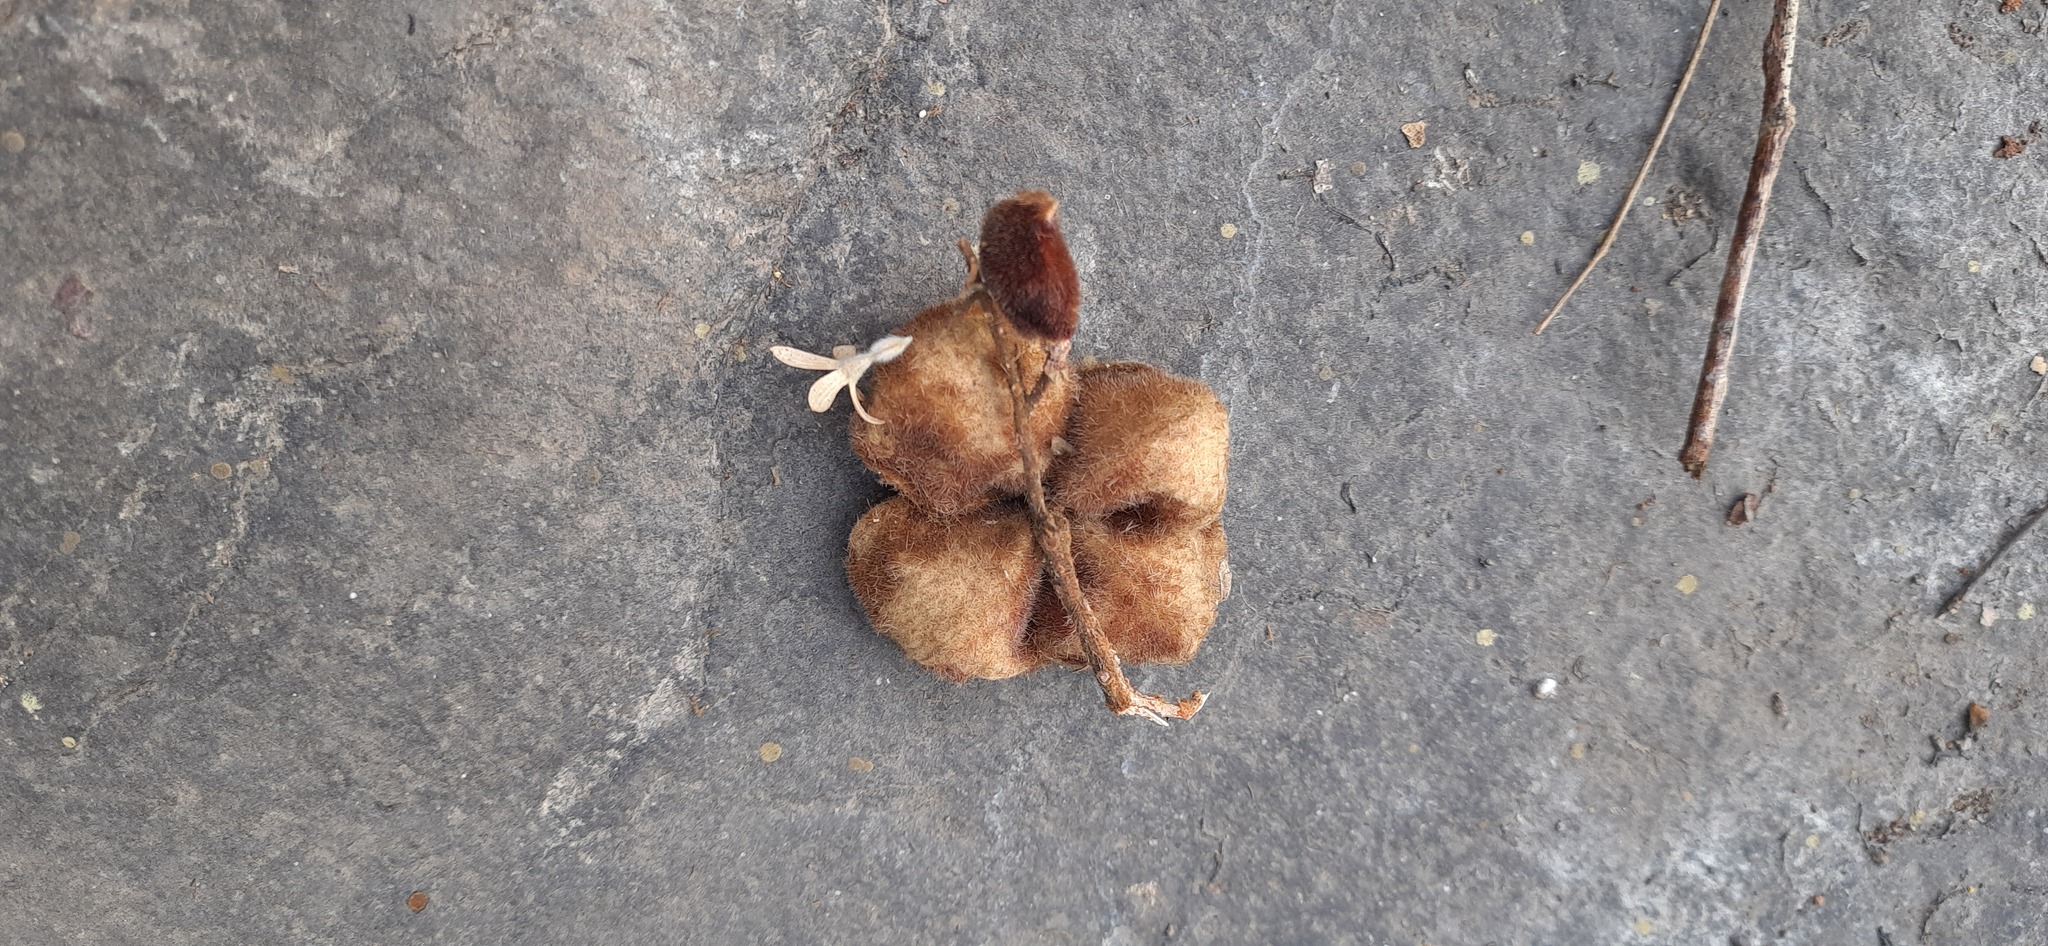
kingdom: Plantae
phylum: Tracheophyta
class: Magnoliopsida
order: Malvales
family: Malvaceae
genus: Sterculia
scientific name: Sterculia urens
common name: Indian-tragacanth
